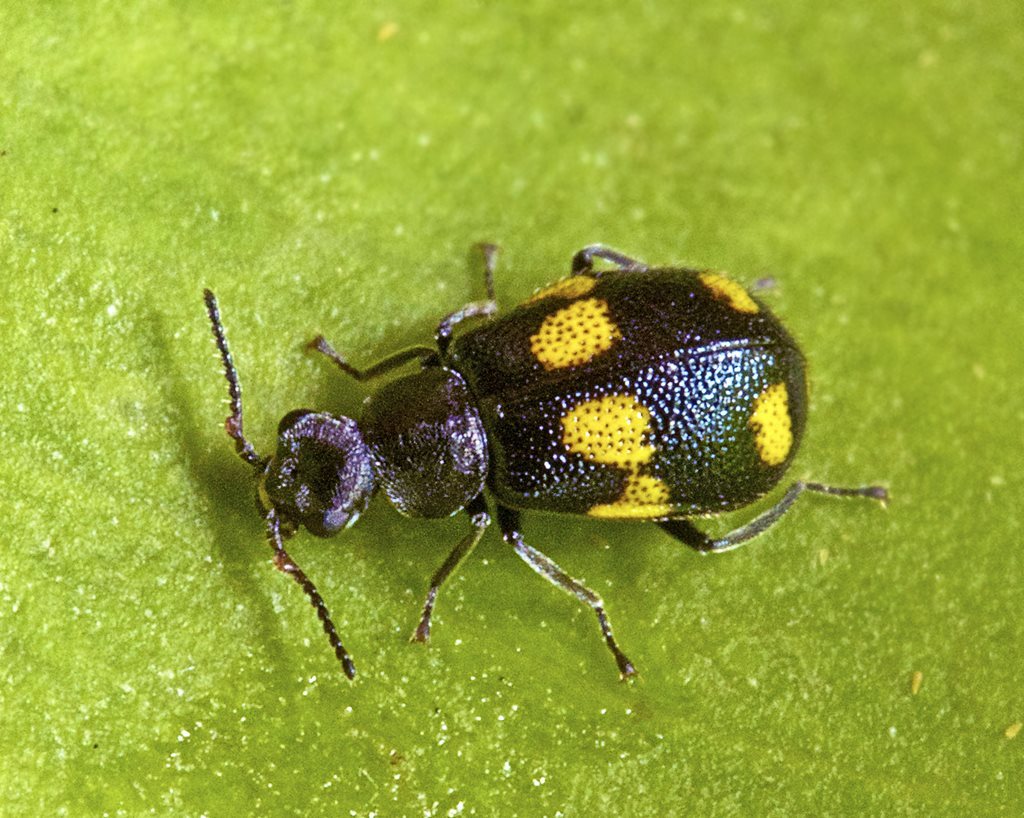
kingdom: Animalia
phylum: Arthropoda
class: Insecta
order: Coleoptera
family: Melyridae
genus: Dicranolaius
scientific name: Dicranolaius
